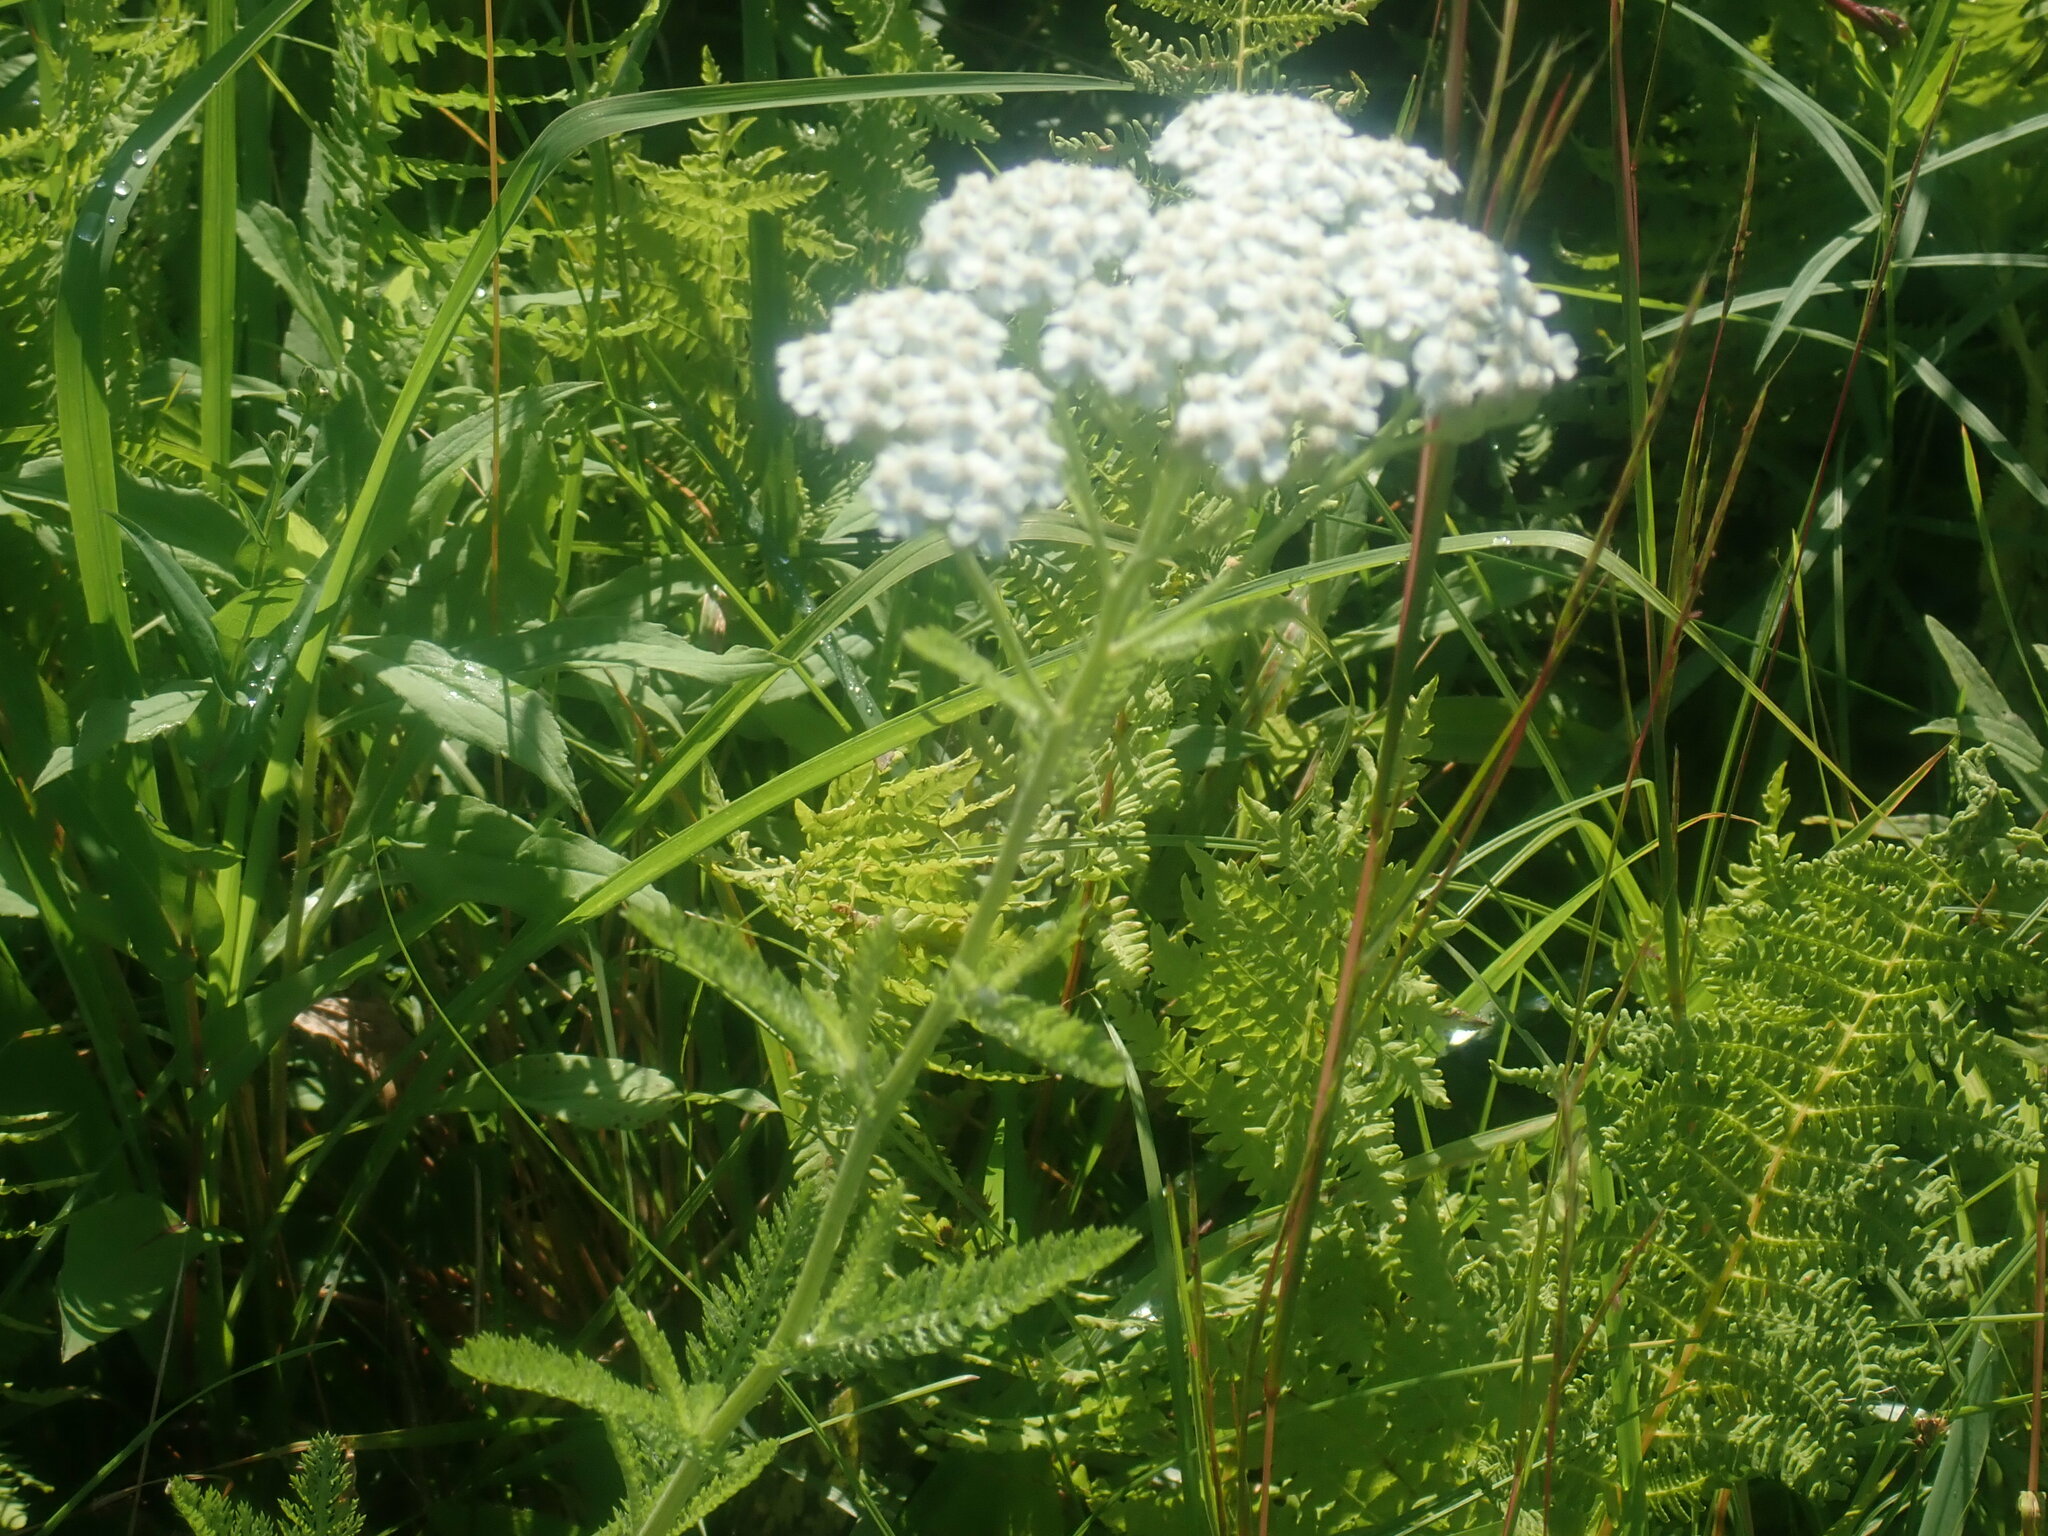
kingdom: Plantae
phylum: Tracheophyta
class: Magnoliopsida
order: Asterales
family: Asteraceae
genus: Achillea
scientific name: Achillea millefolium
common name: Yarrow
